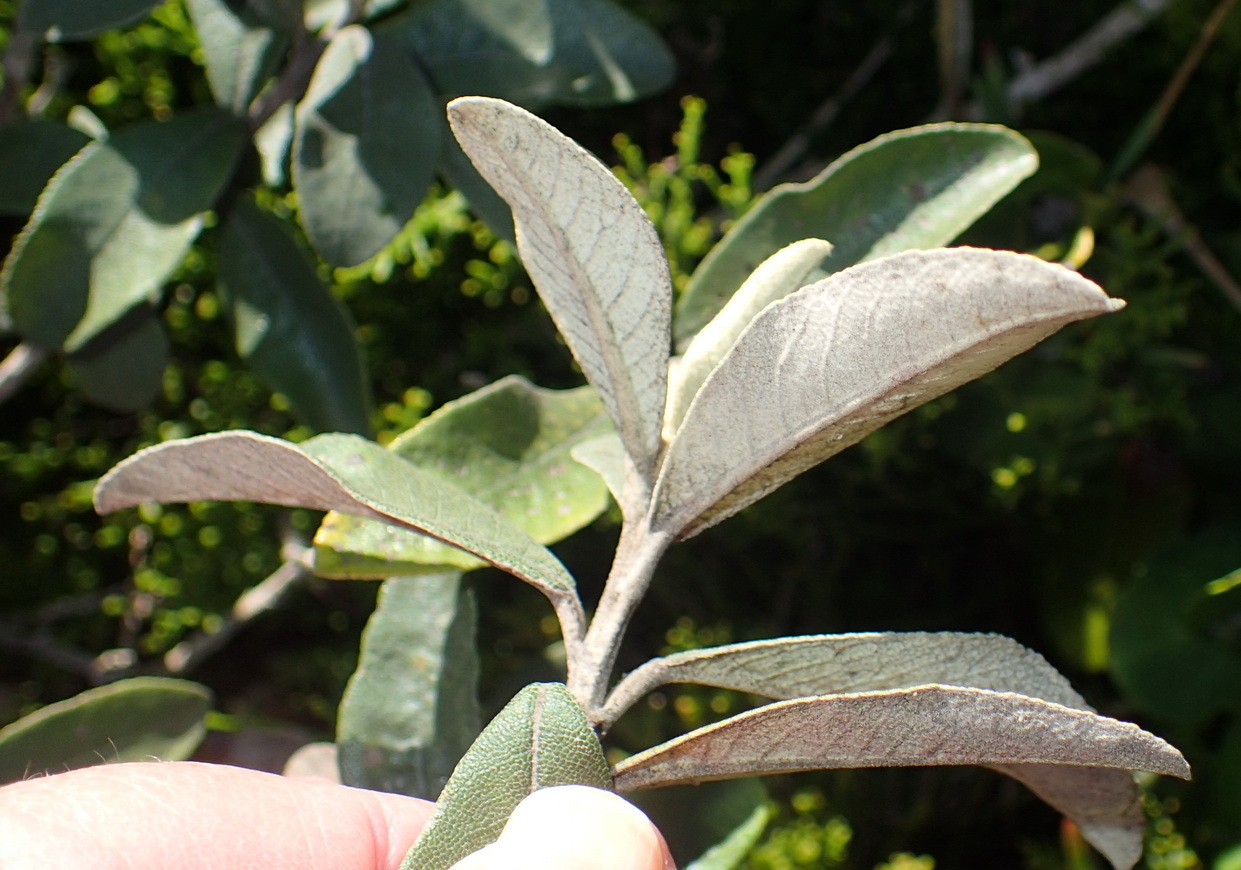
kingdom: Plantae
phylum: Tracheophyta
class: Magnoliopsida
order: Asterales
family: Asteraceae
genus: Tarchonanthus
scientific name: Tarchonanthus littoralis
